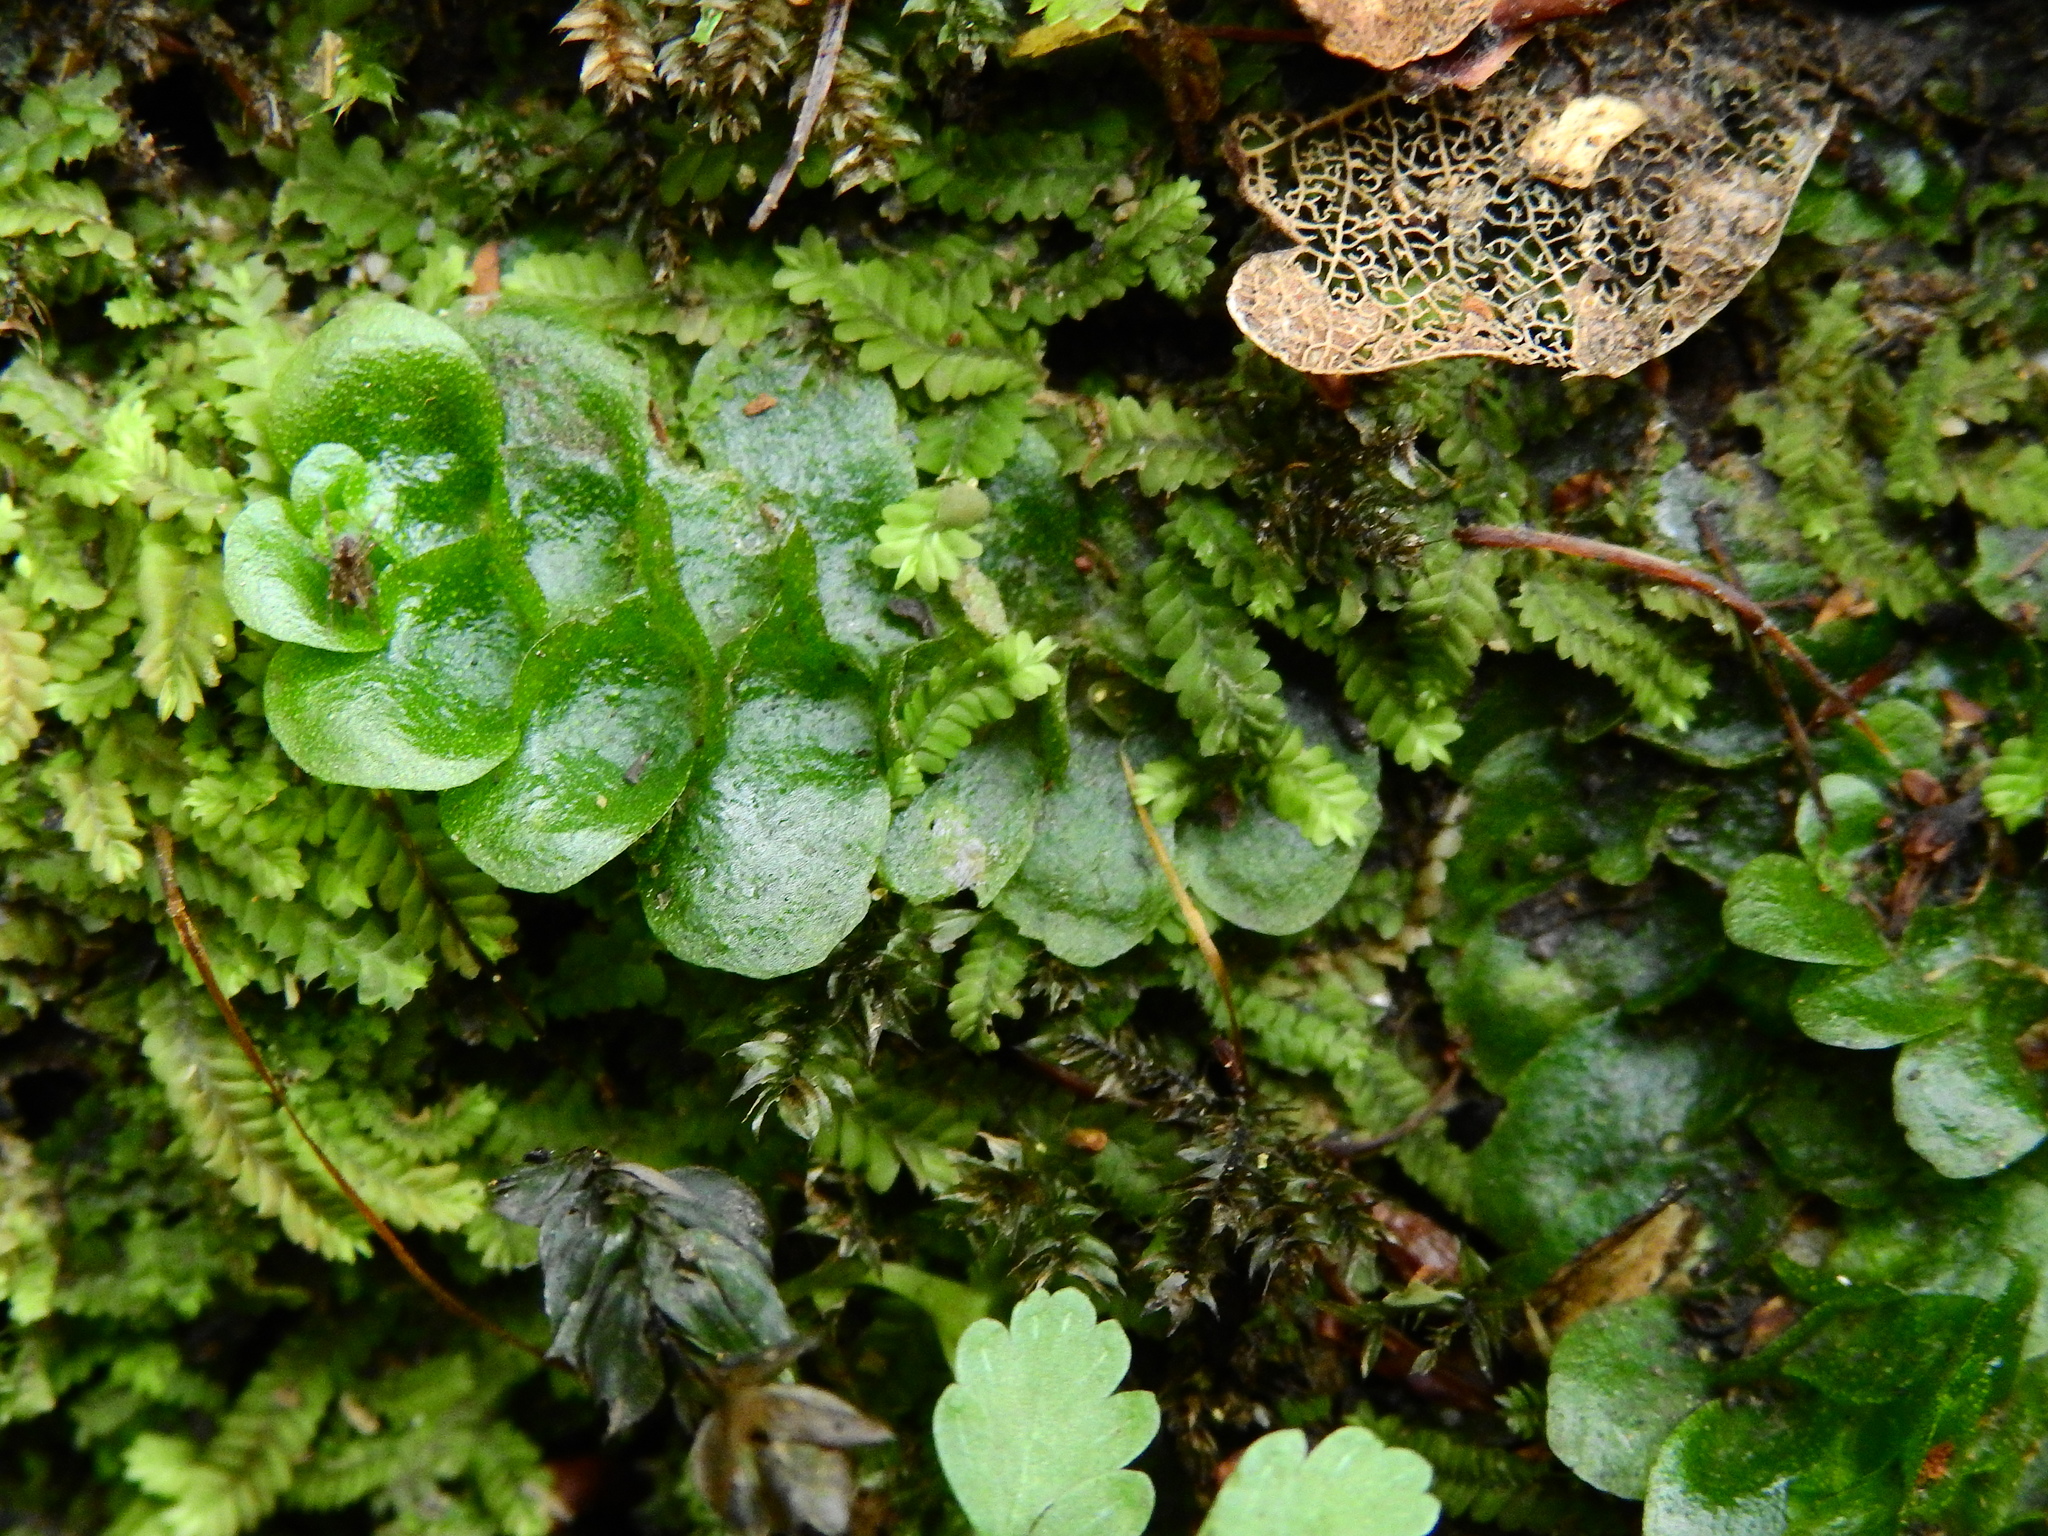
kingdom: Plantae
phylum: Marchantiophyta
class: Haplomitriopsida
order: Treubiales
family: Treubiaceae
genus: Treubia
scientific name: Treubia lacunosa
